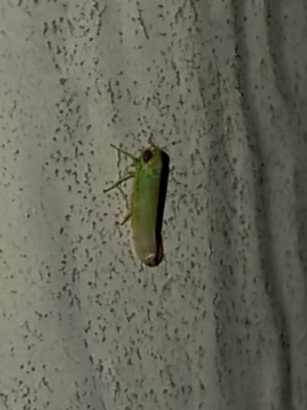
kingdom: Animalia
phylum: Arthropoda
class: Insecta
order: Hemiptera
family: Cicadellidae
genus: Empoasca
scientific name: Empoasca fabae
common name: Potato leafhopper
